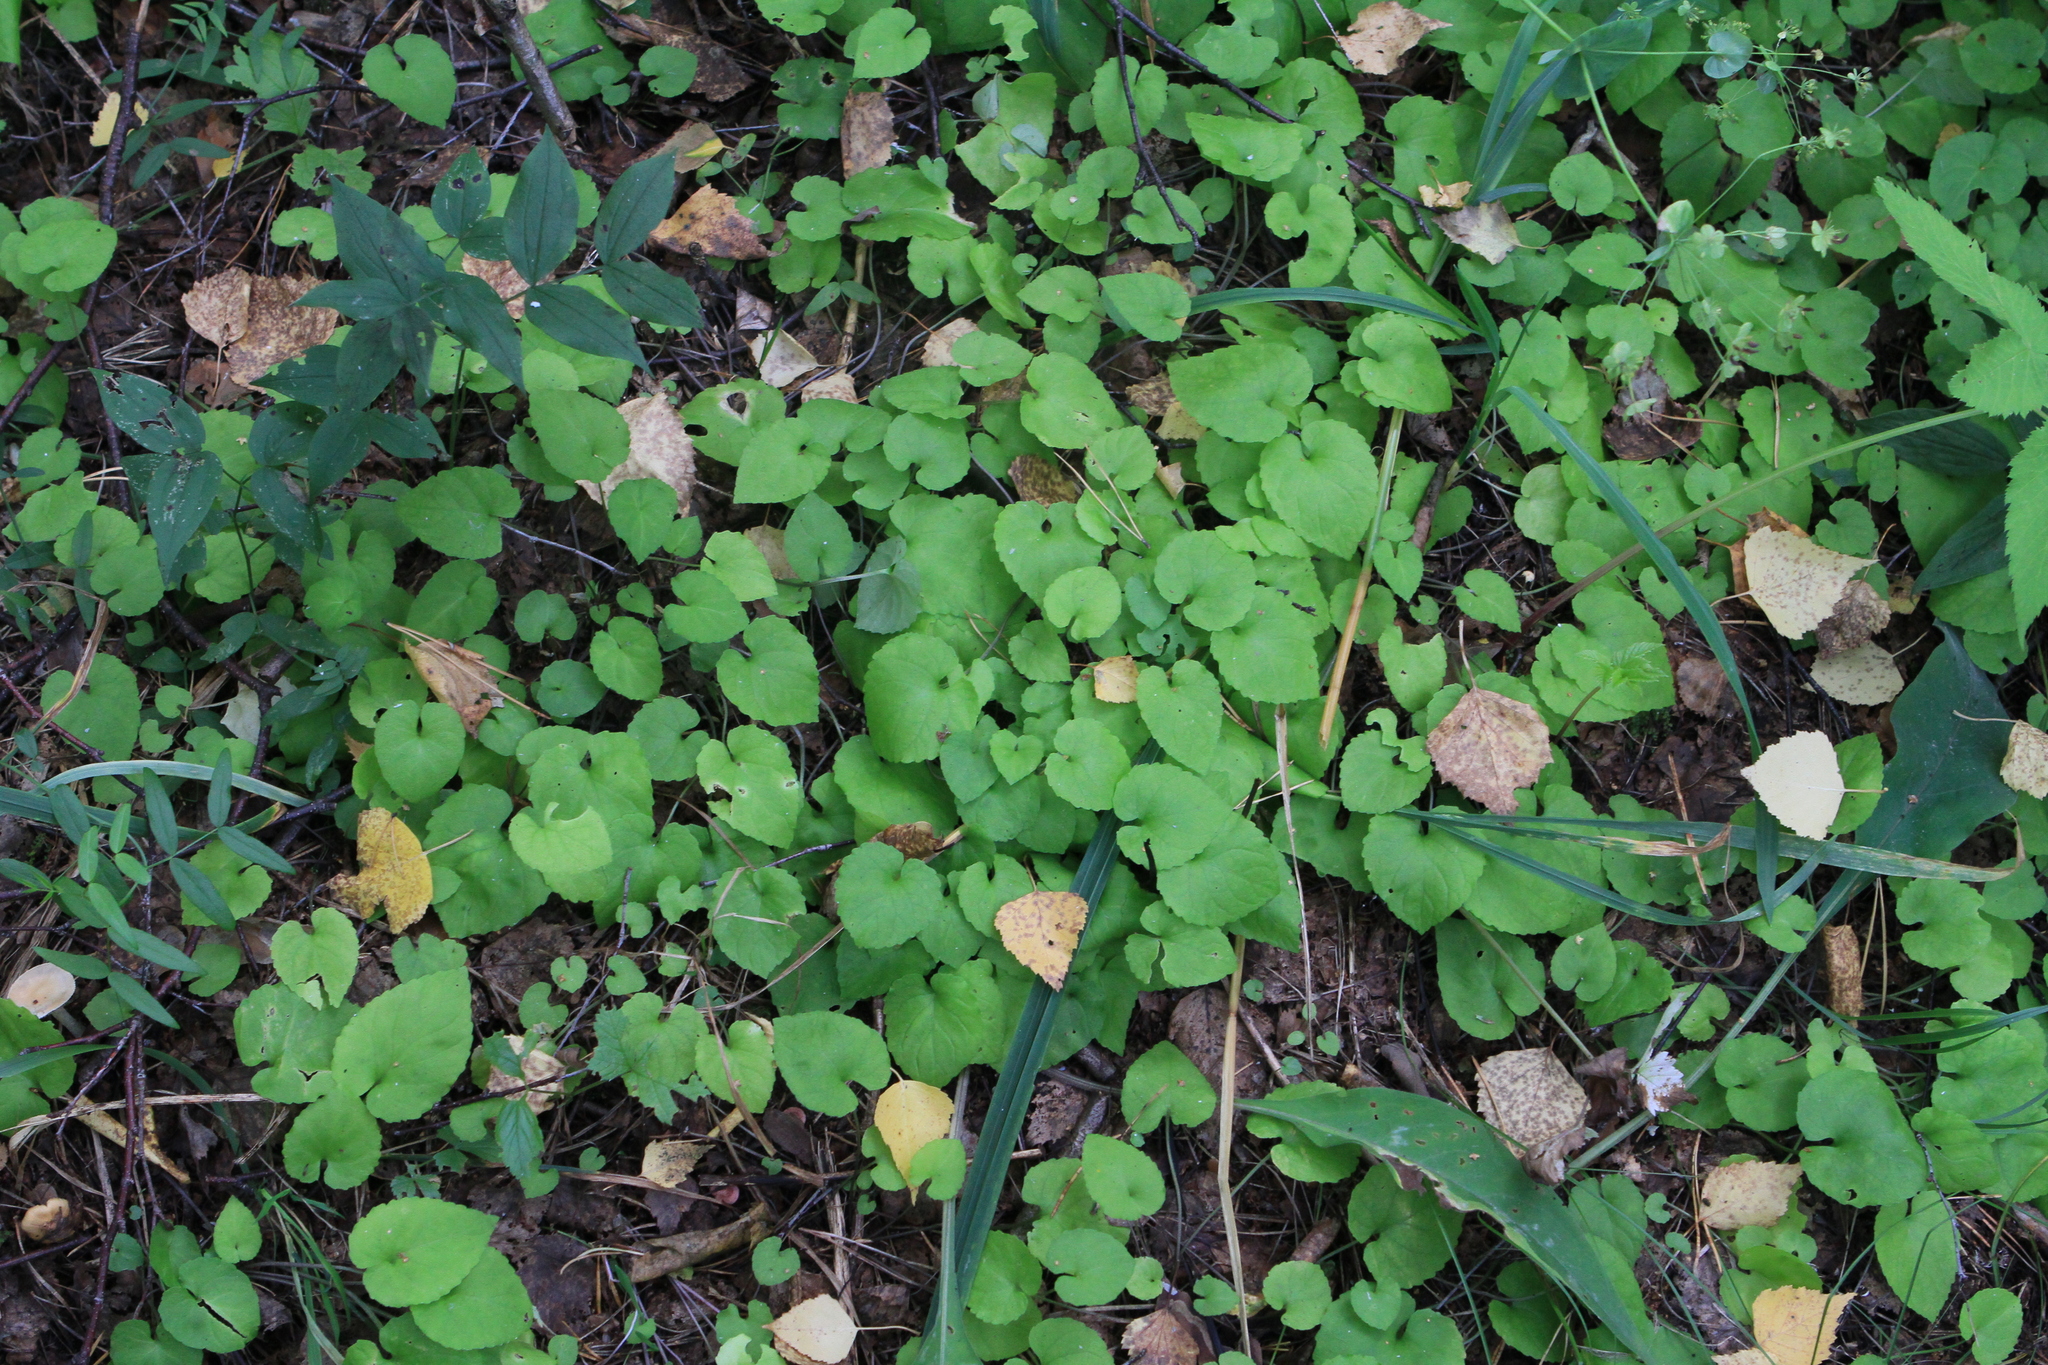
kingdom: Plantae
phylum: Tracheophyta
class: Magnoliopsida
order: Malpighiales
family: Violaceae
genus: Viola
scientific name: Viola selkirkii
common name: Selkirk's violet
